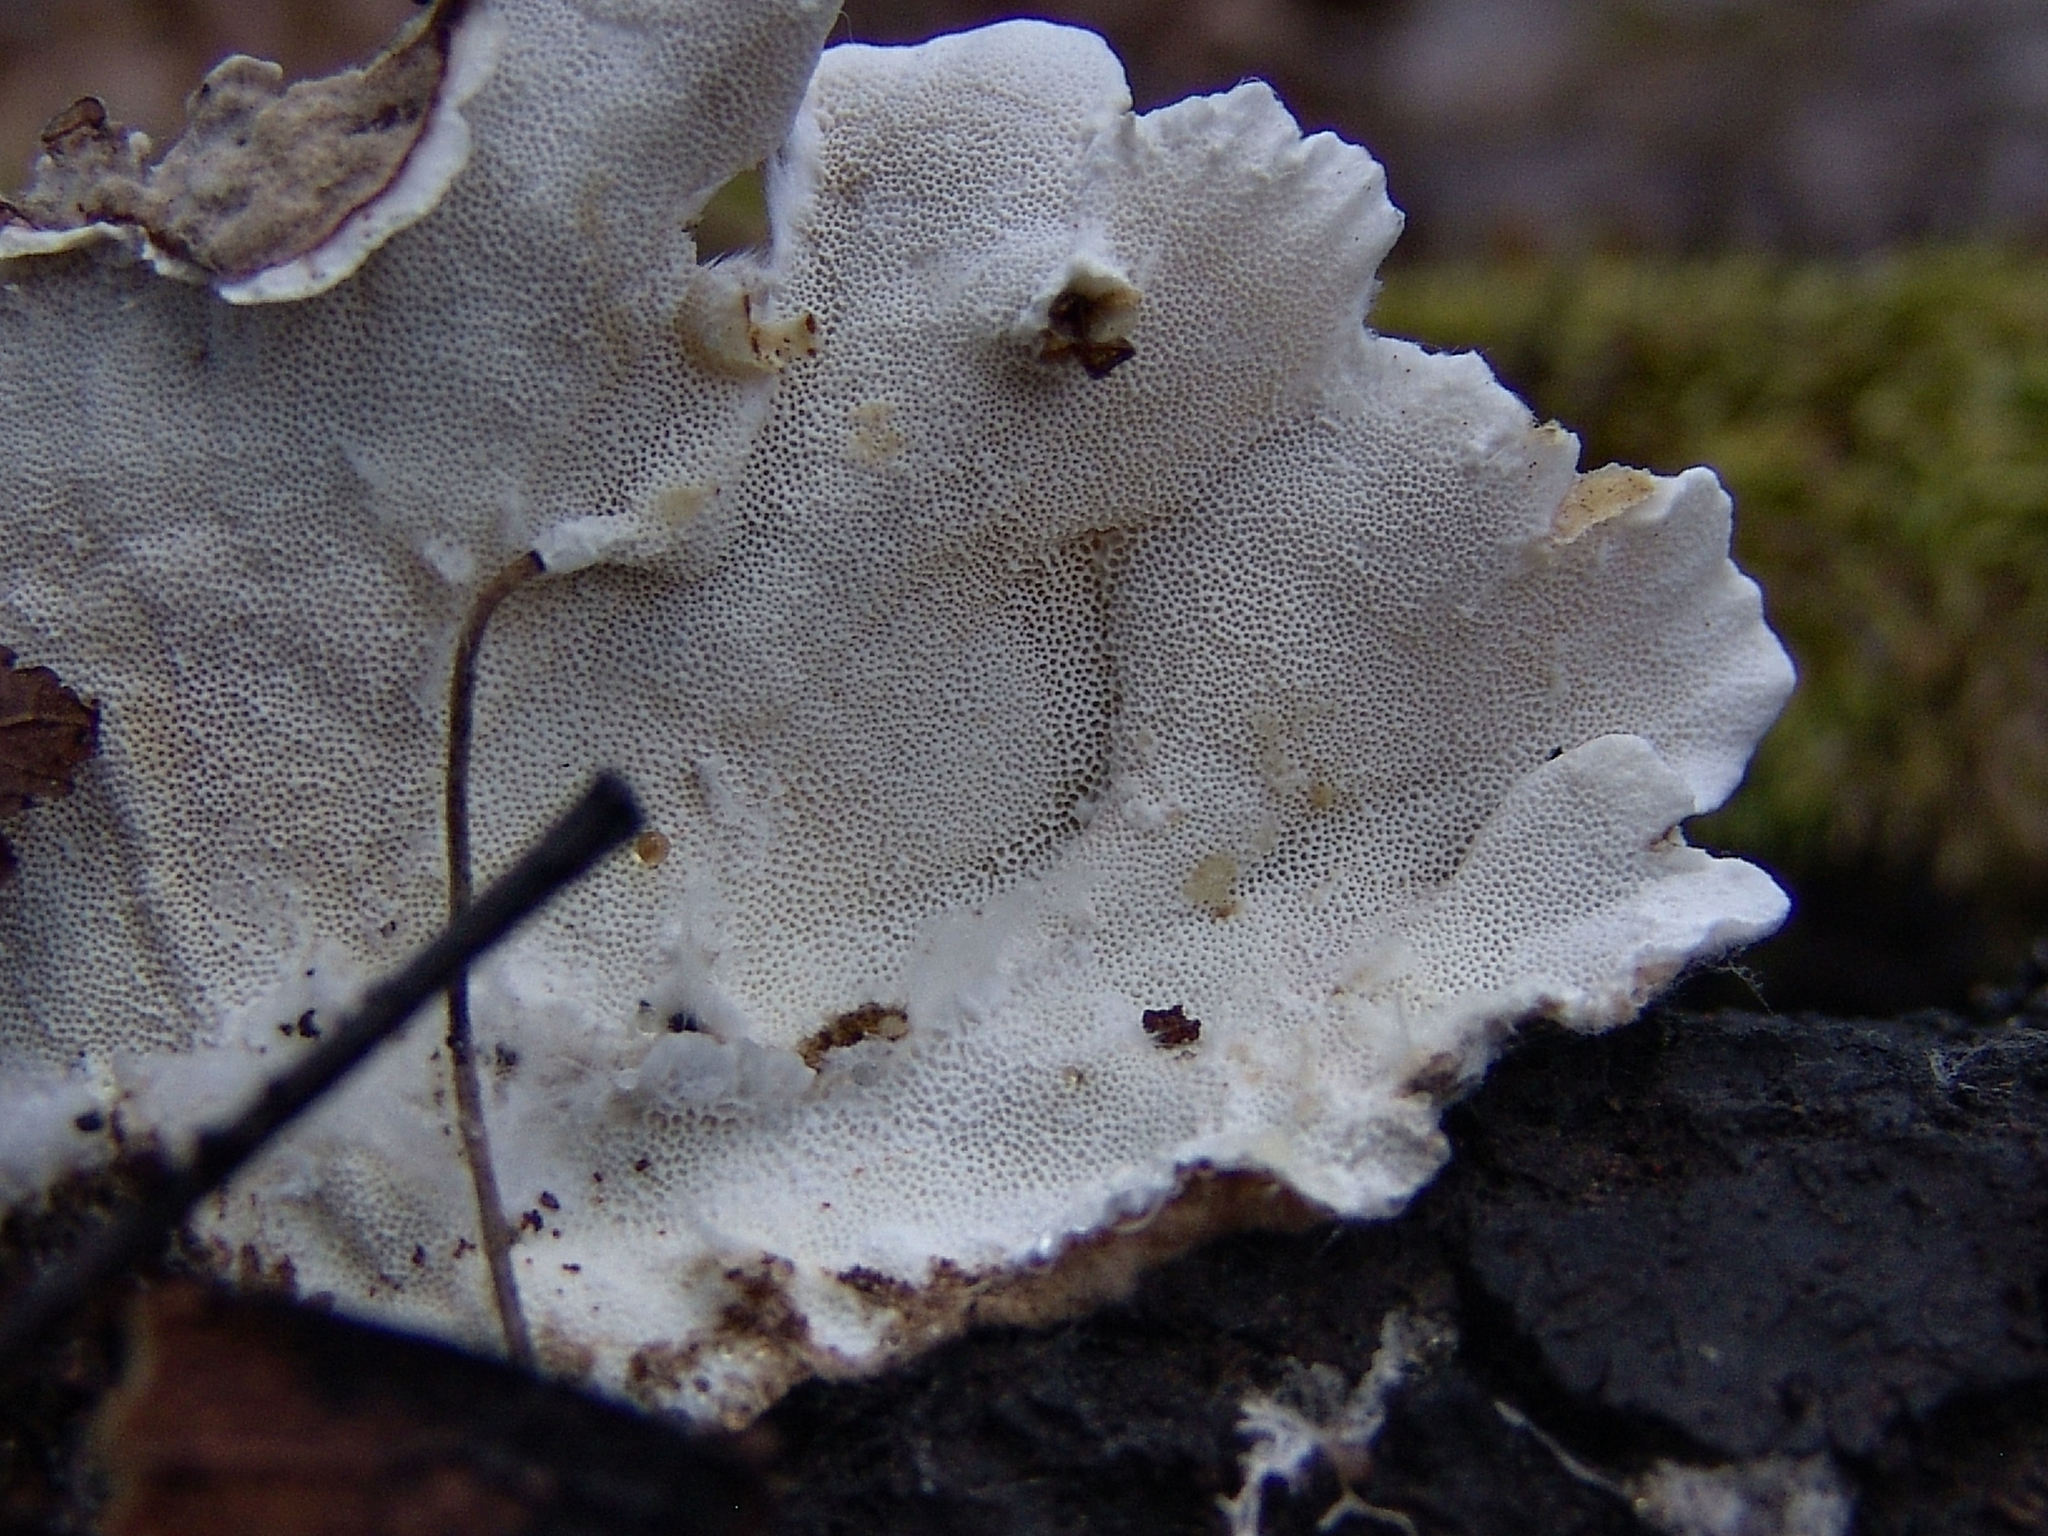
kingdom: Fungi
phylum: Basidiomycota
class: Agaricomycetes
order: Polyporales
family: Polyporaceae
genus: Trametes
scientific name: Trametes versicolor
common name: Turkeytail
